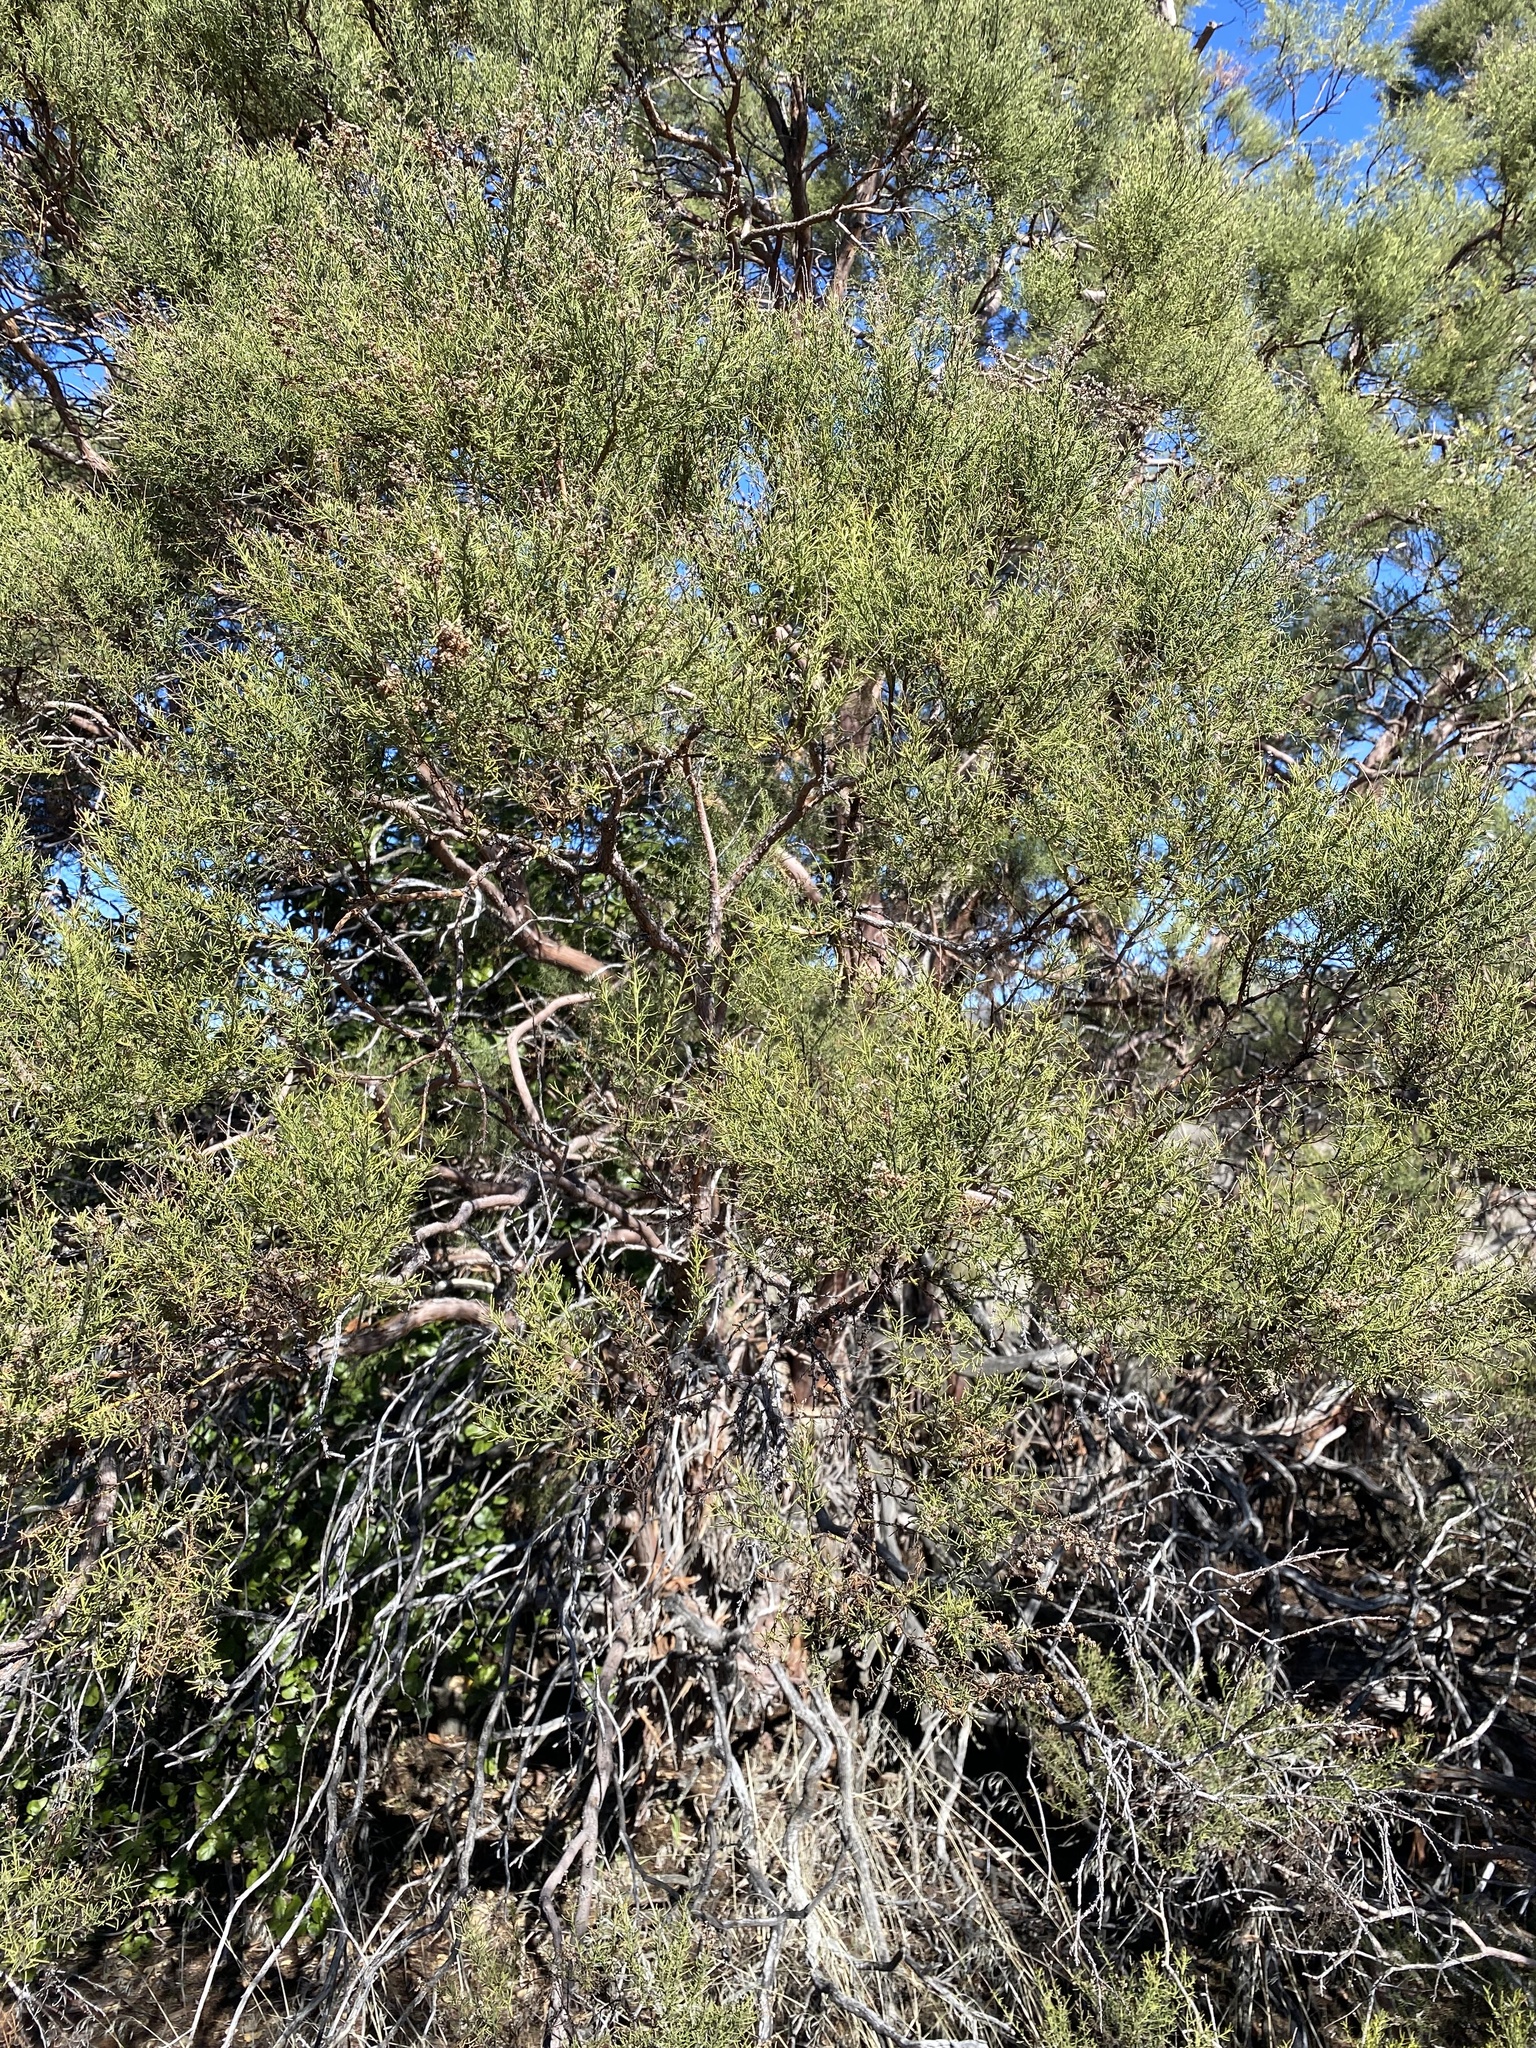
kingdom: Plantae
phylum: Tracheophyta
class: Magnoliopsida
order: Rosales
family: Rosaceae
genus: Adenostoma
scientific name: Adenostoma sparsifolium
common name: Red shank
